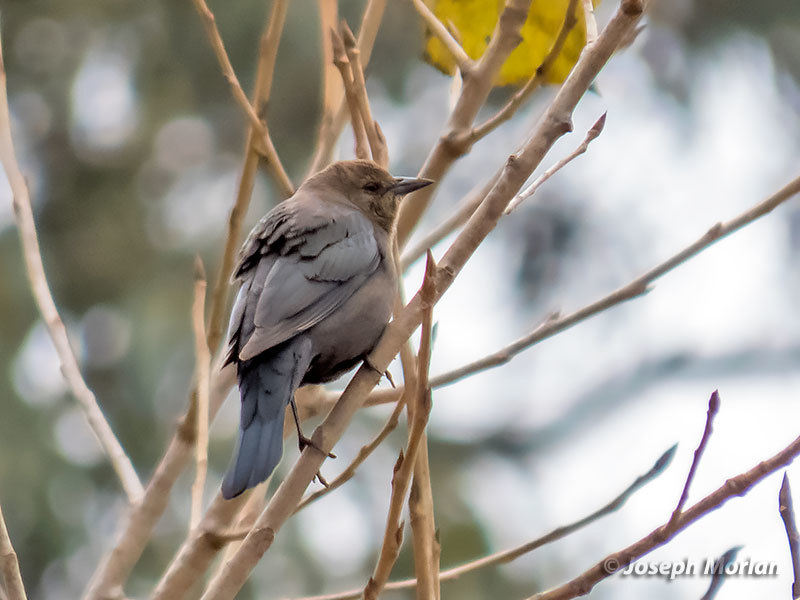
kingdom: Animalia
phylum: Chordata
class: Aves
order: Passeriformes
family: Icteridae
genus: Euphagus
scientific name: Euphagus cyanocephalus
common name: Brewer's blackbird
